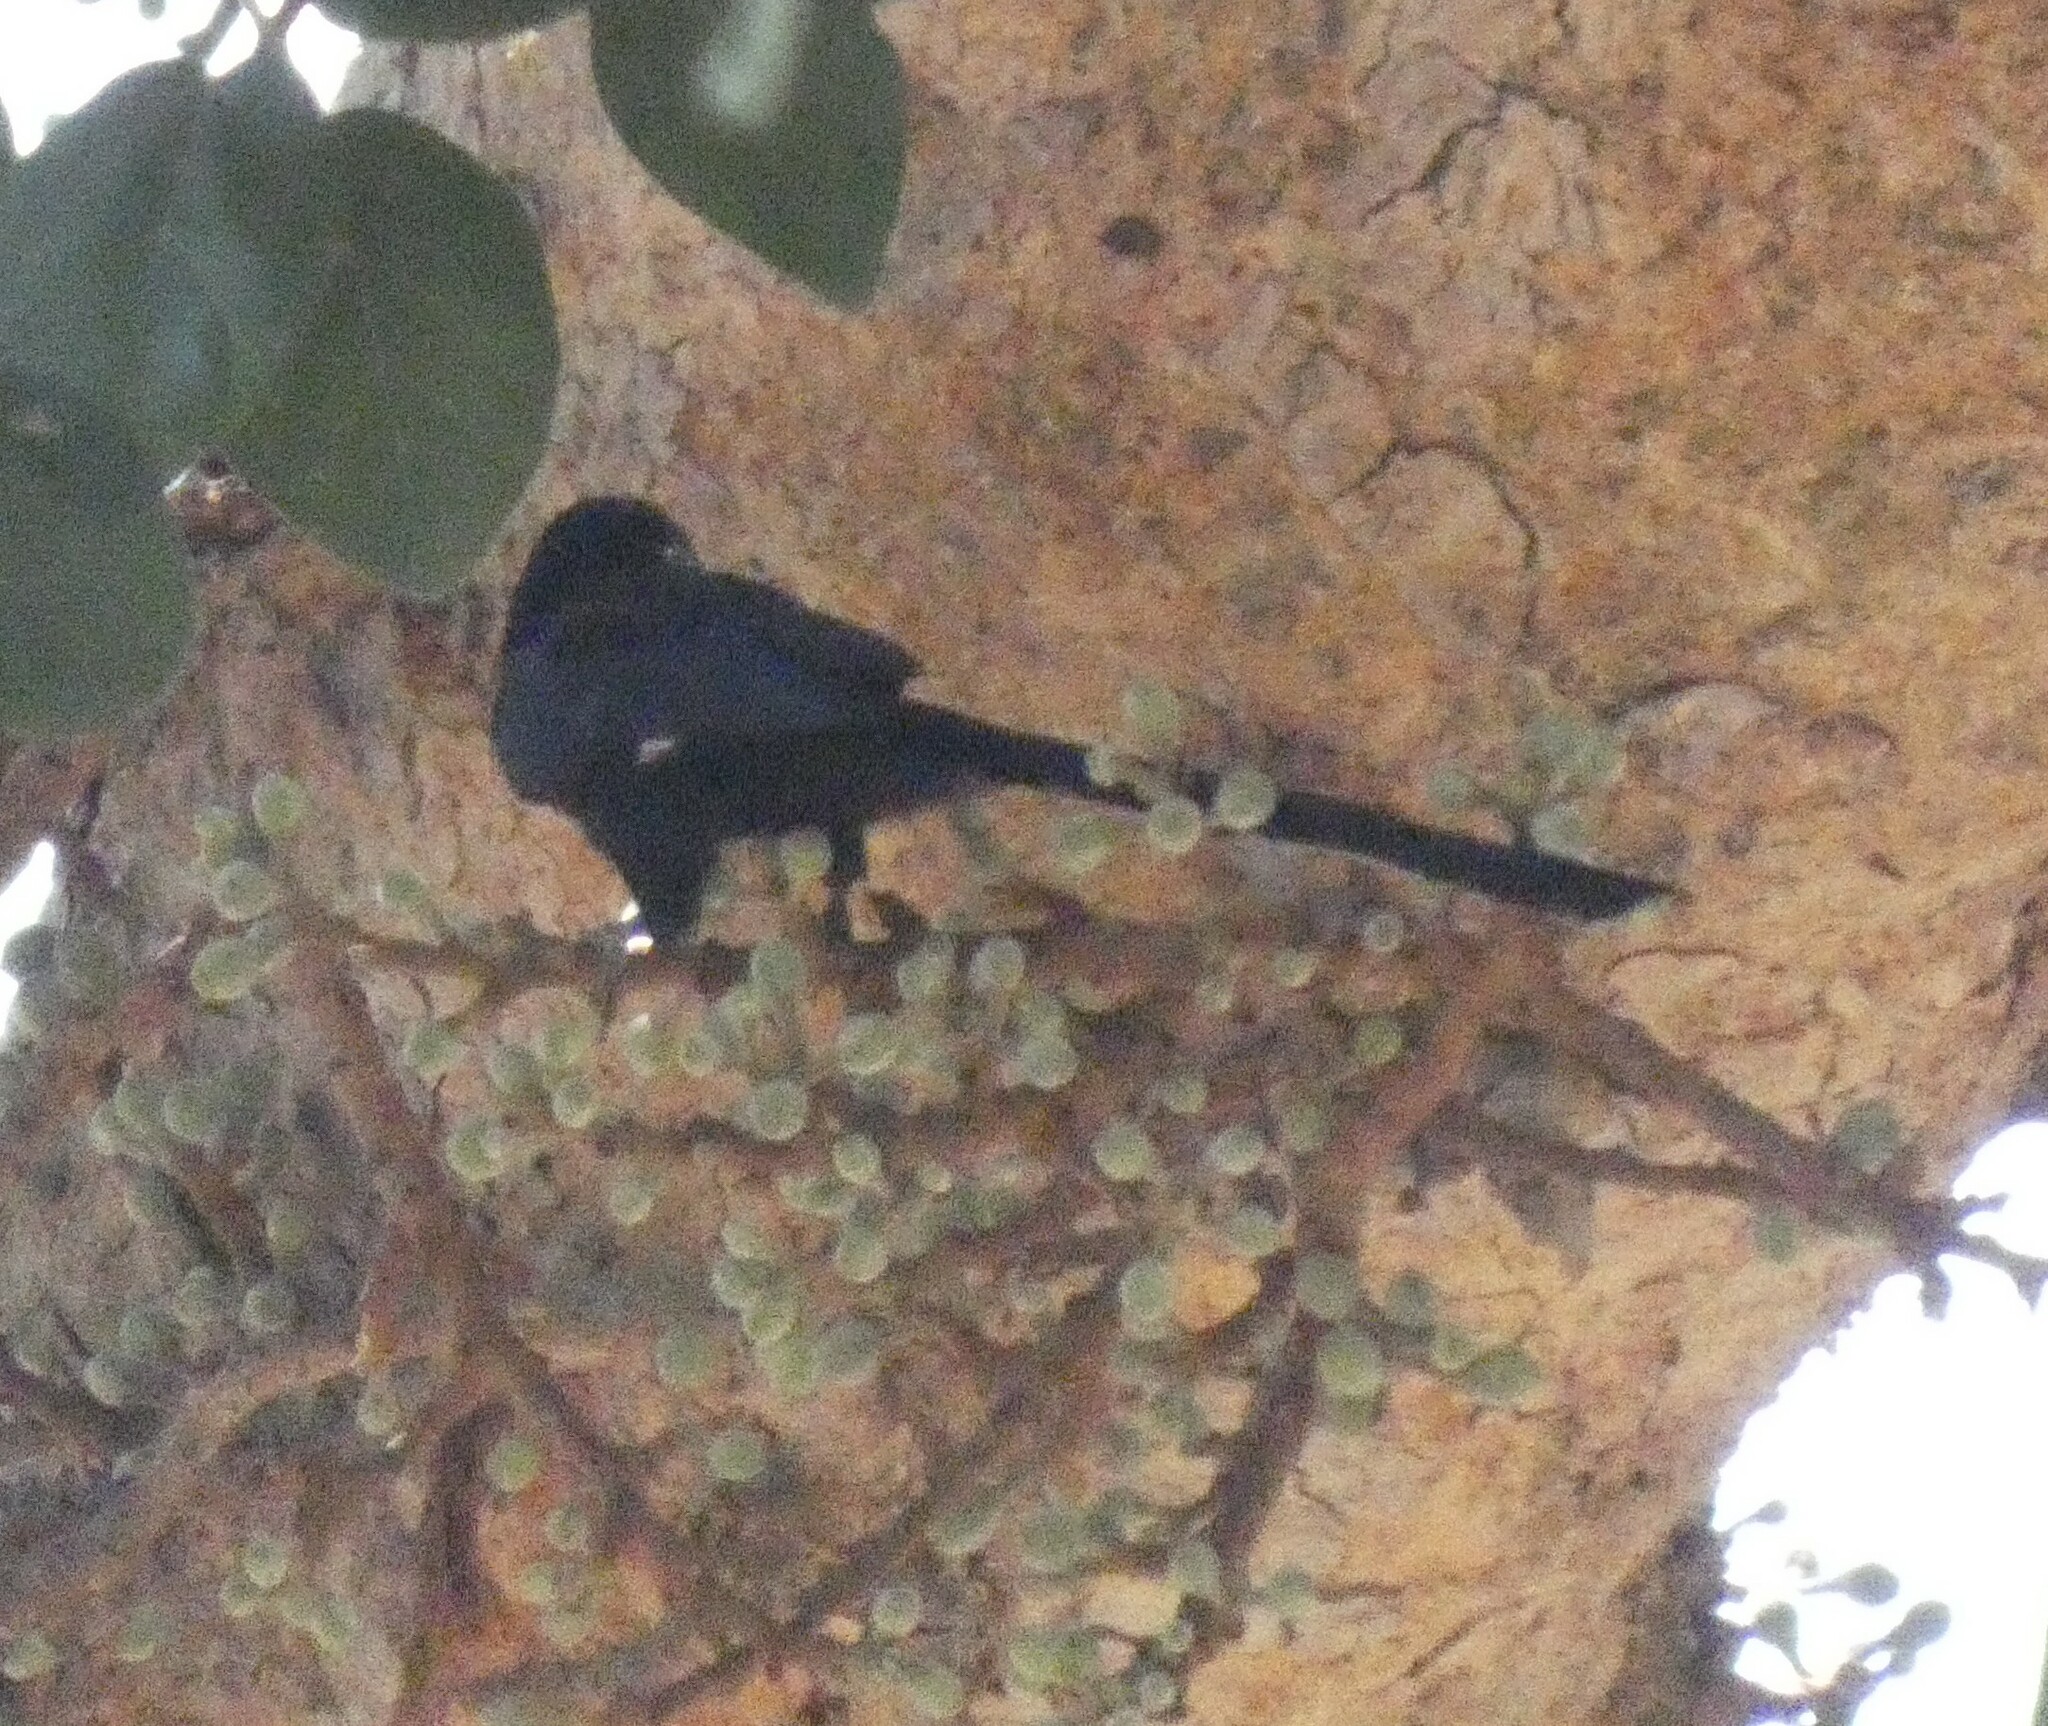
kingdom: Animalia
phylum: Chordata
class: Aves
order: Bucerotiformes
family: Phoeniculidae
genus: Rhinopomastus
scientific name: Rhinopomastus cyanomelas
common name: Common scimitarbill
